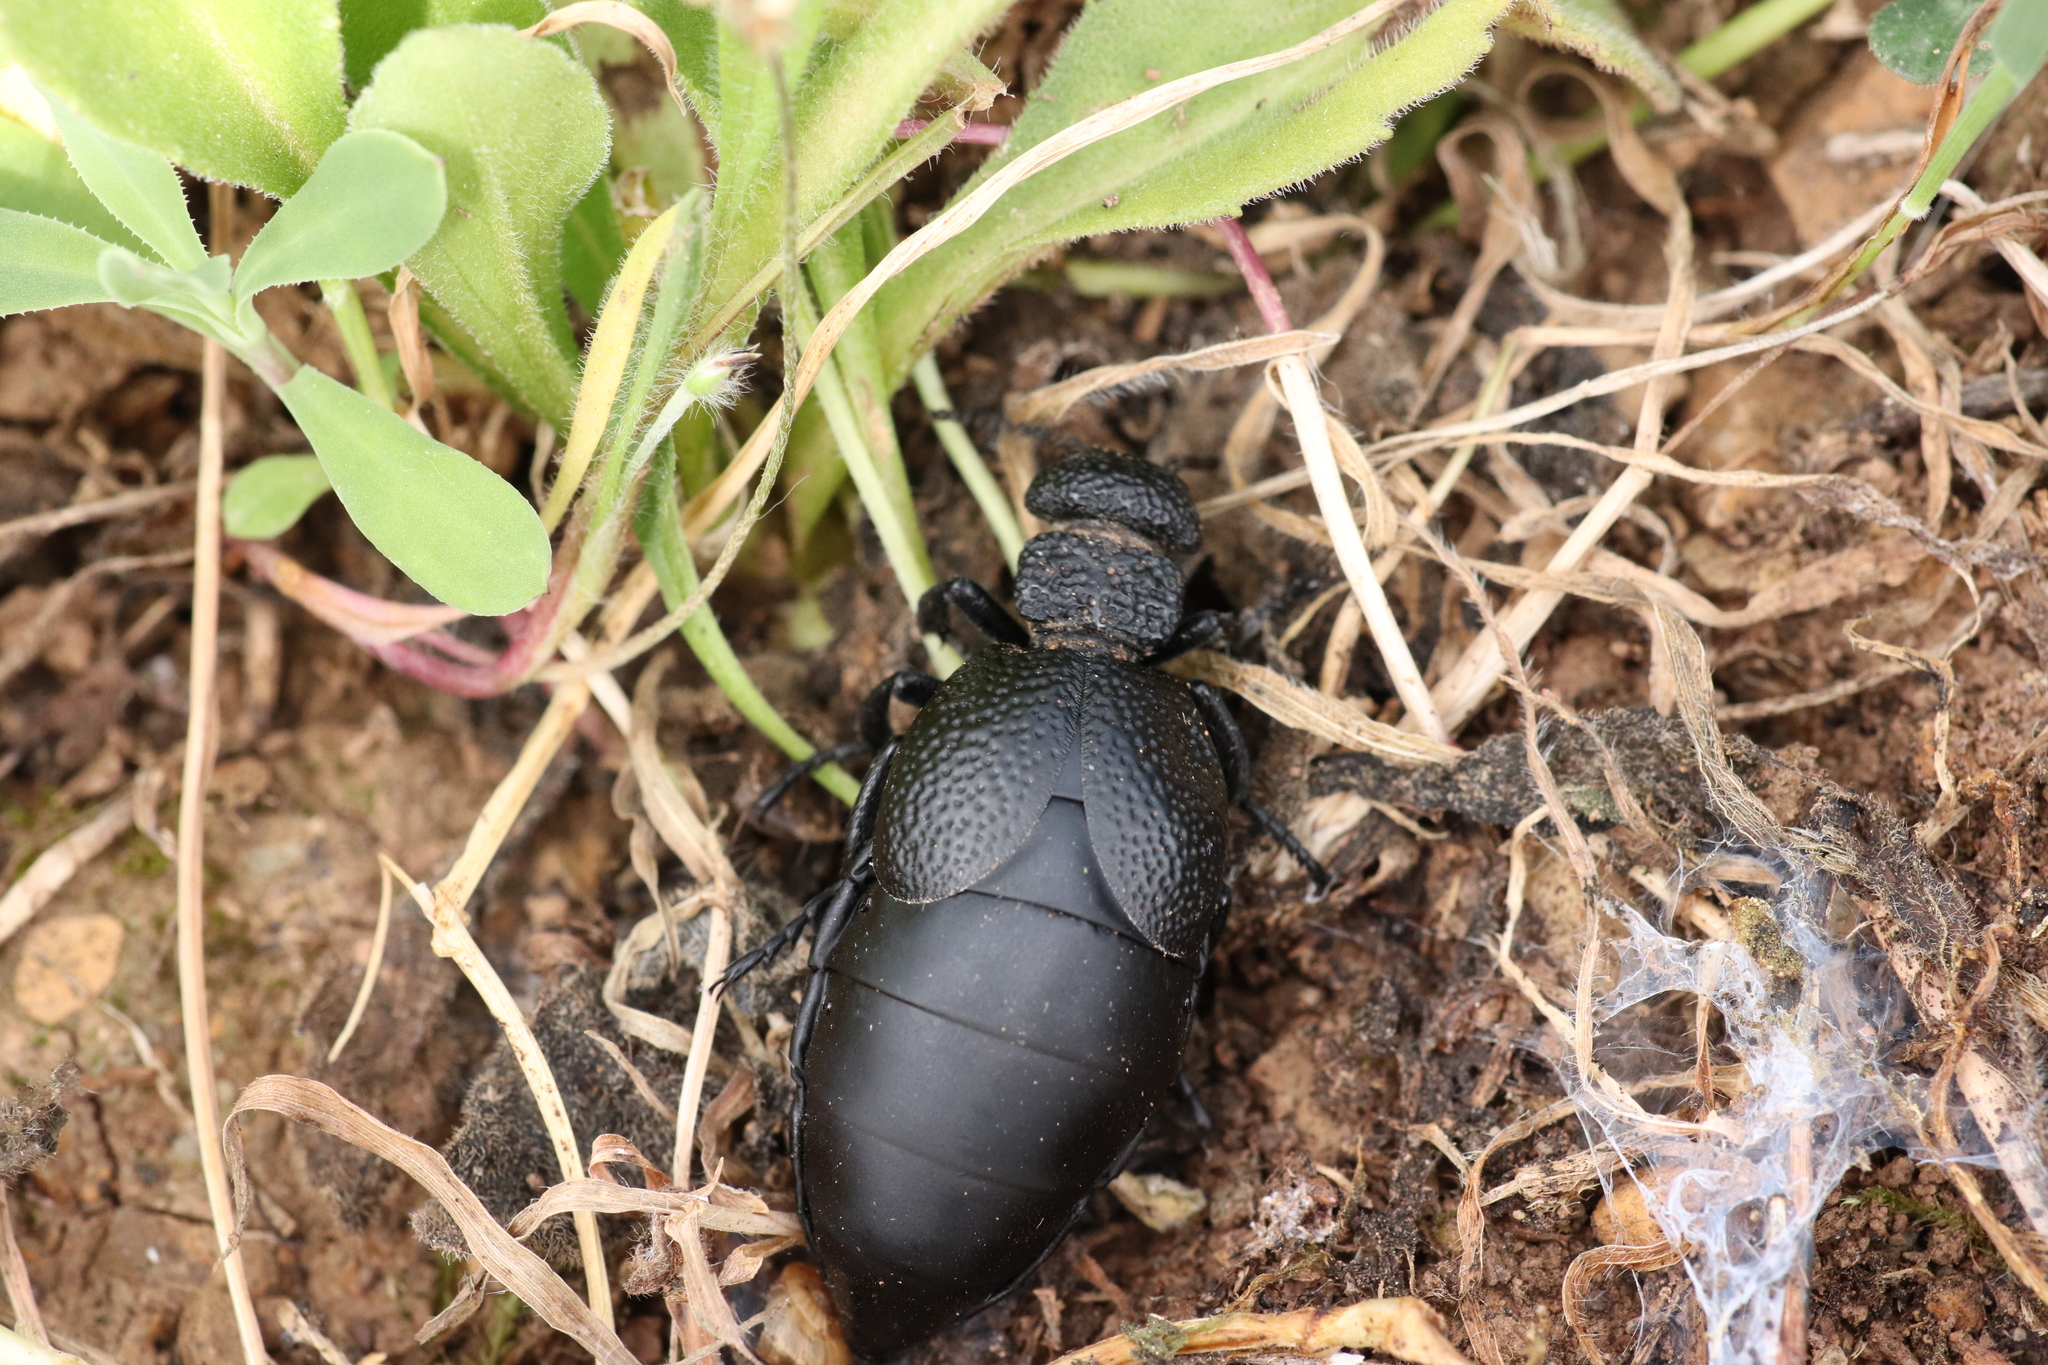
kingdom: Animalia
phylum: Arthropoda
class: Insecta
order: Coleoptera
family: Meloidae
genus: Meloe
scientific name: Meloe tuccius
